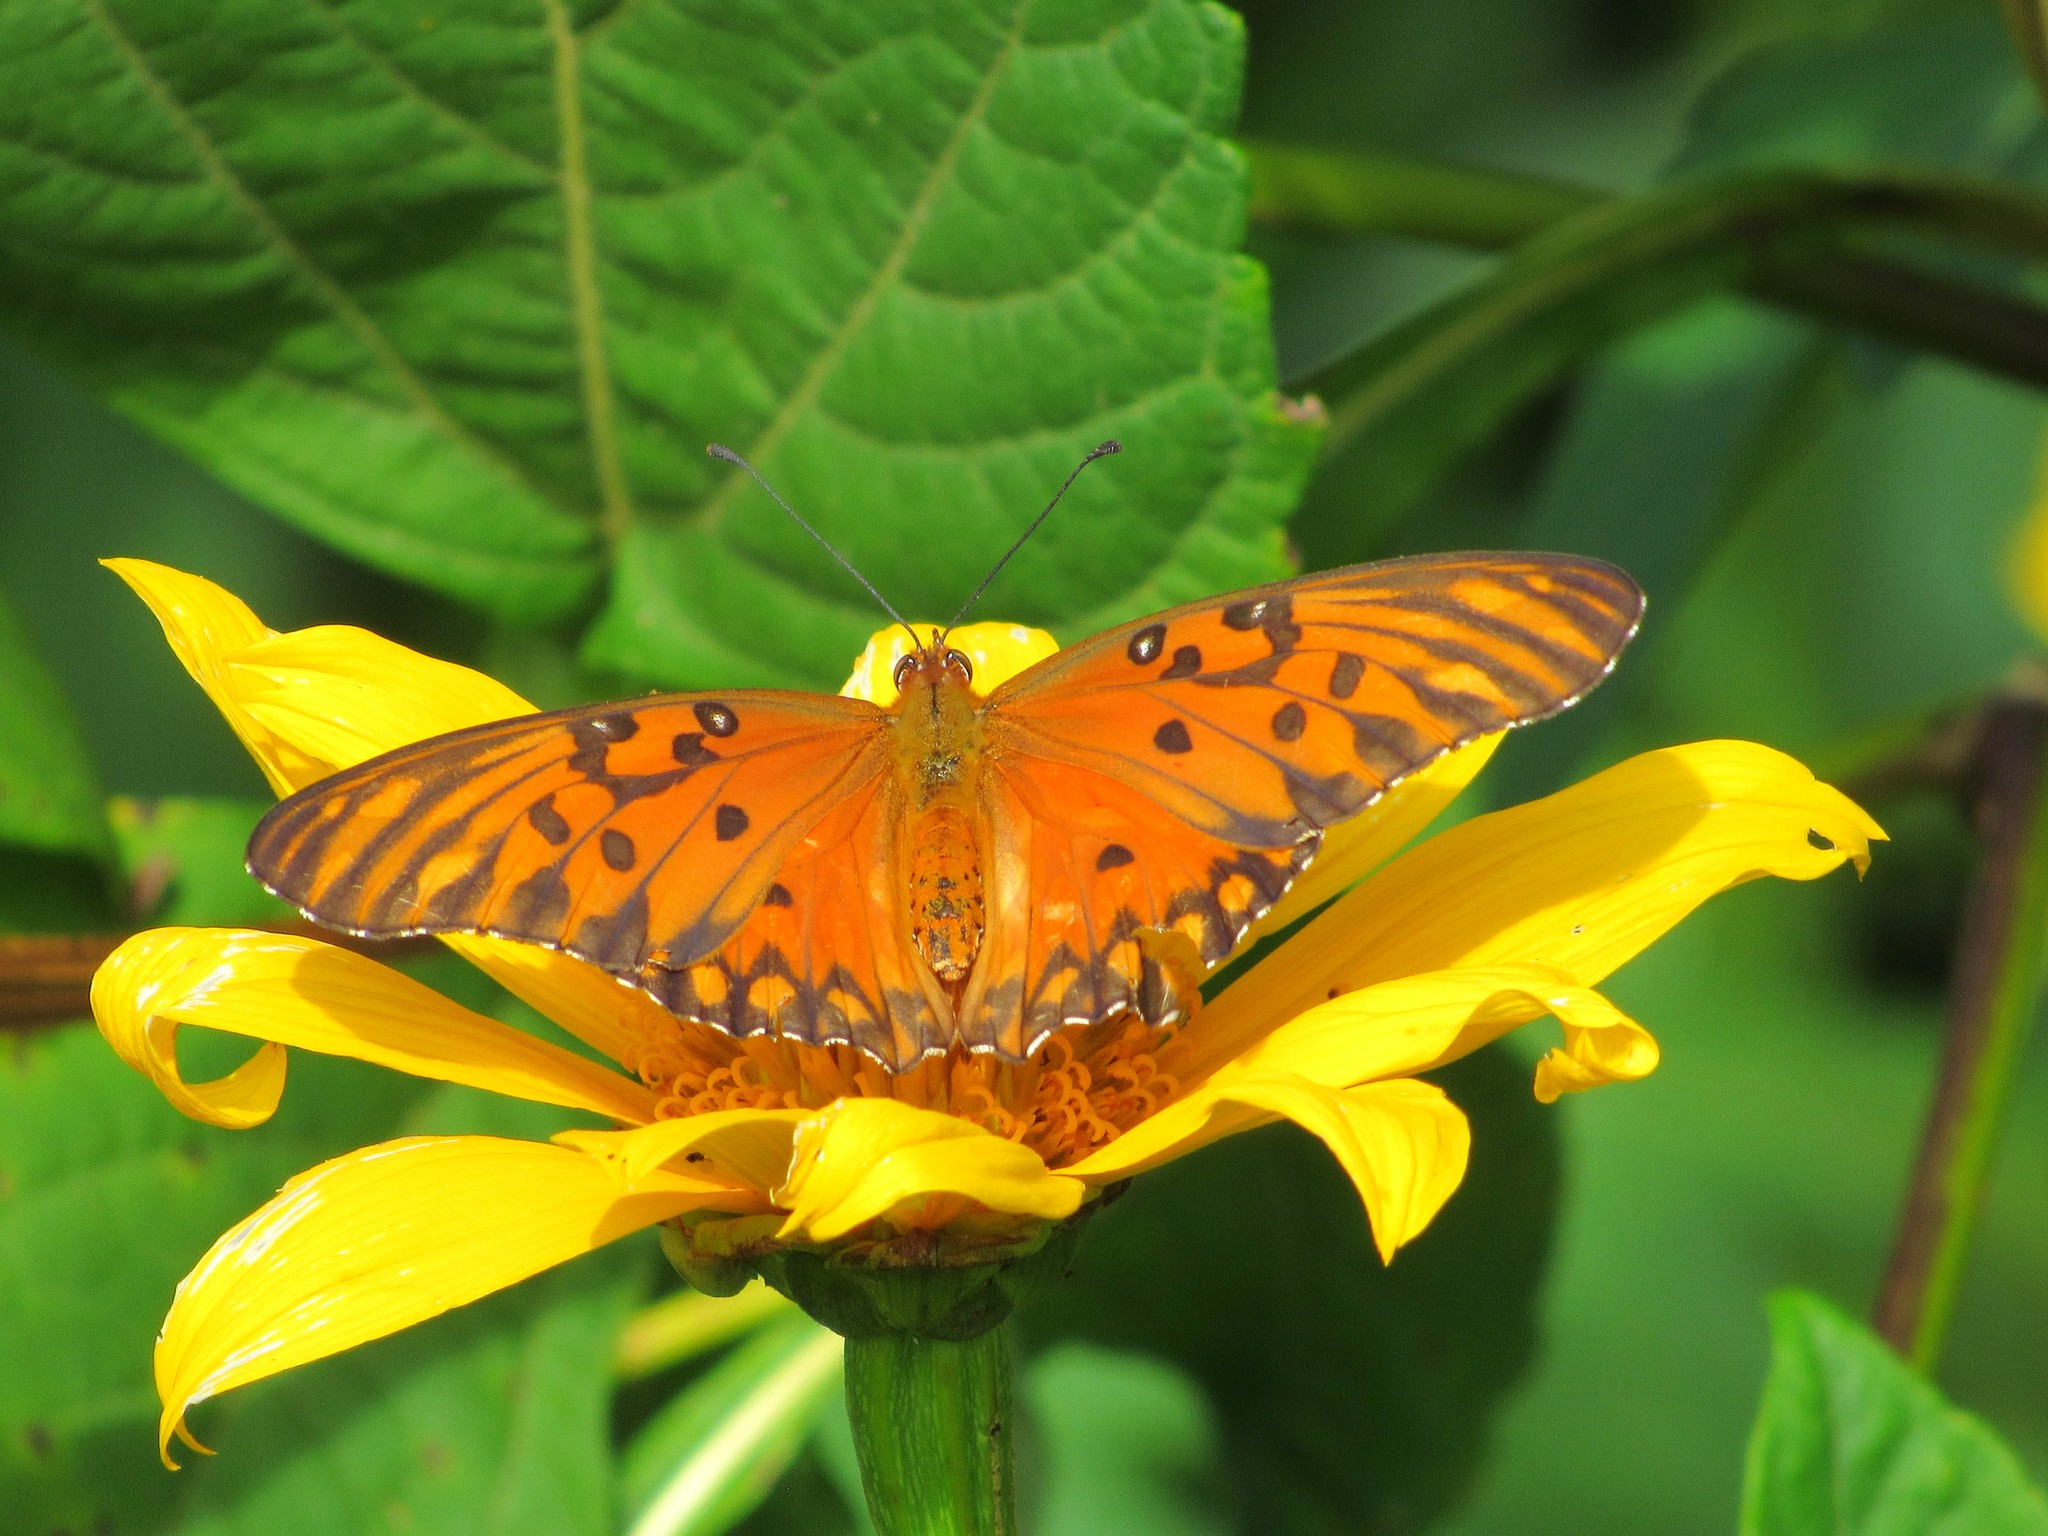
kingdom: Animalia
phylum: Arthropoda
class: Insecta
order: Lepidoptera
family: Nymphalidae
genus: Dione
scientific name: Dione vanillae
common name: Gulf fritillary
